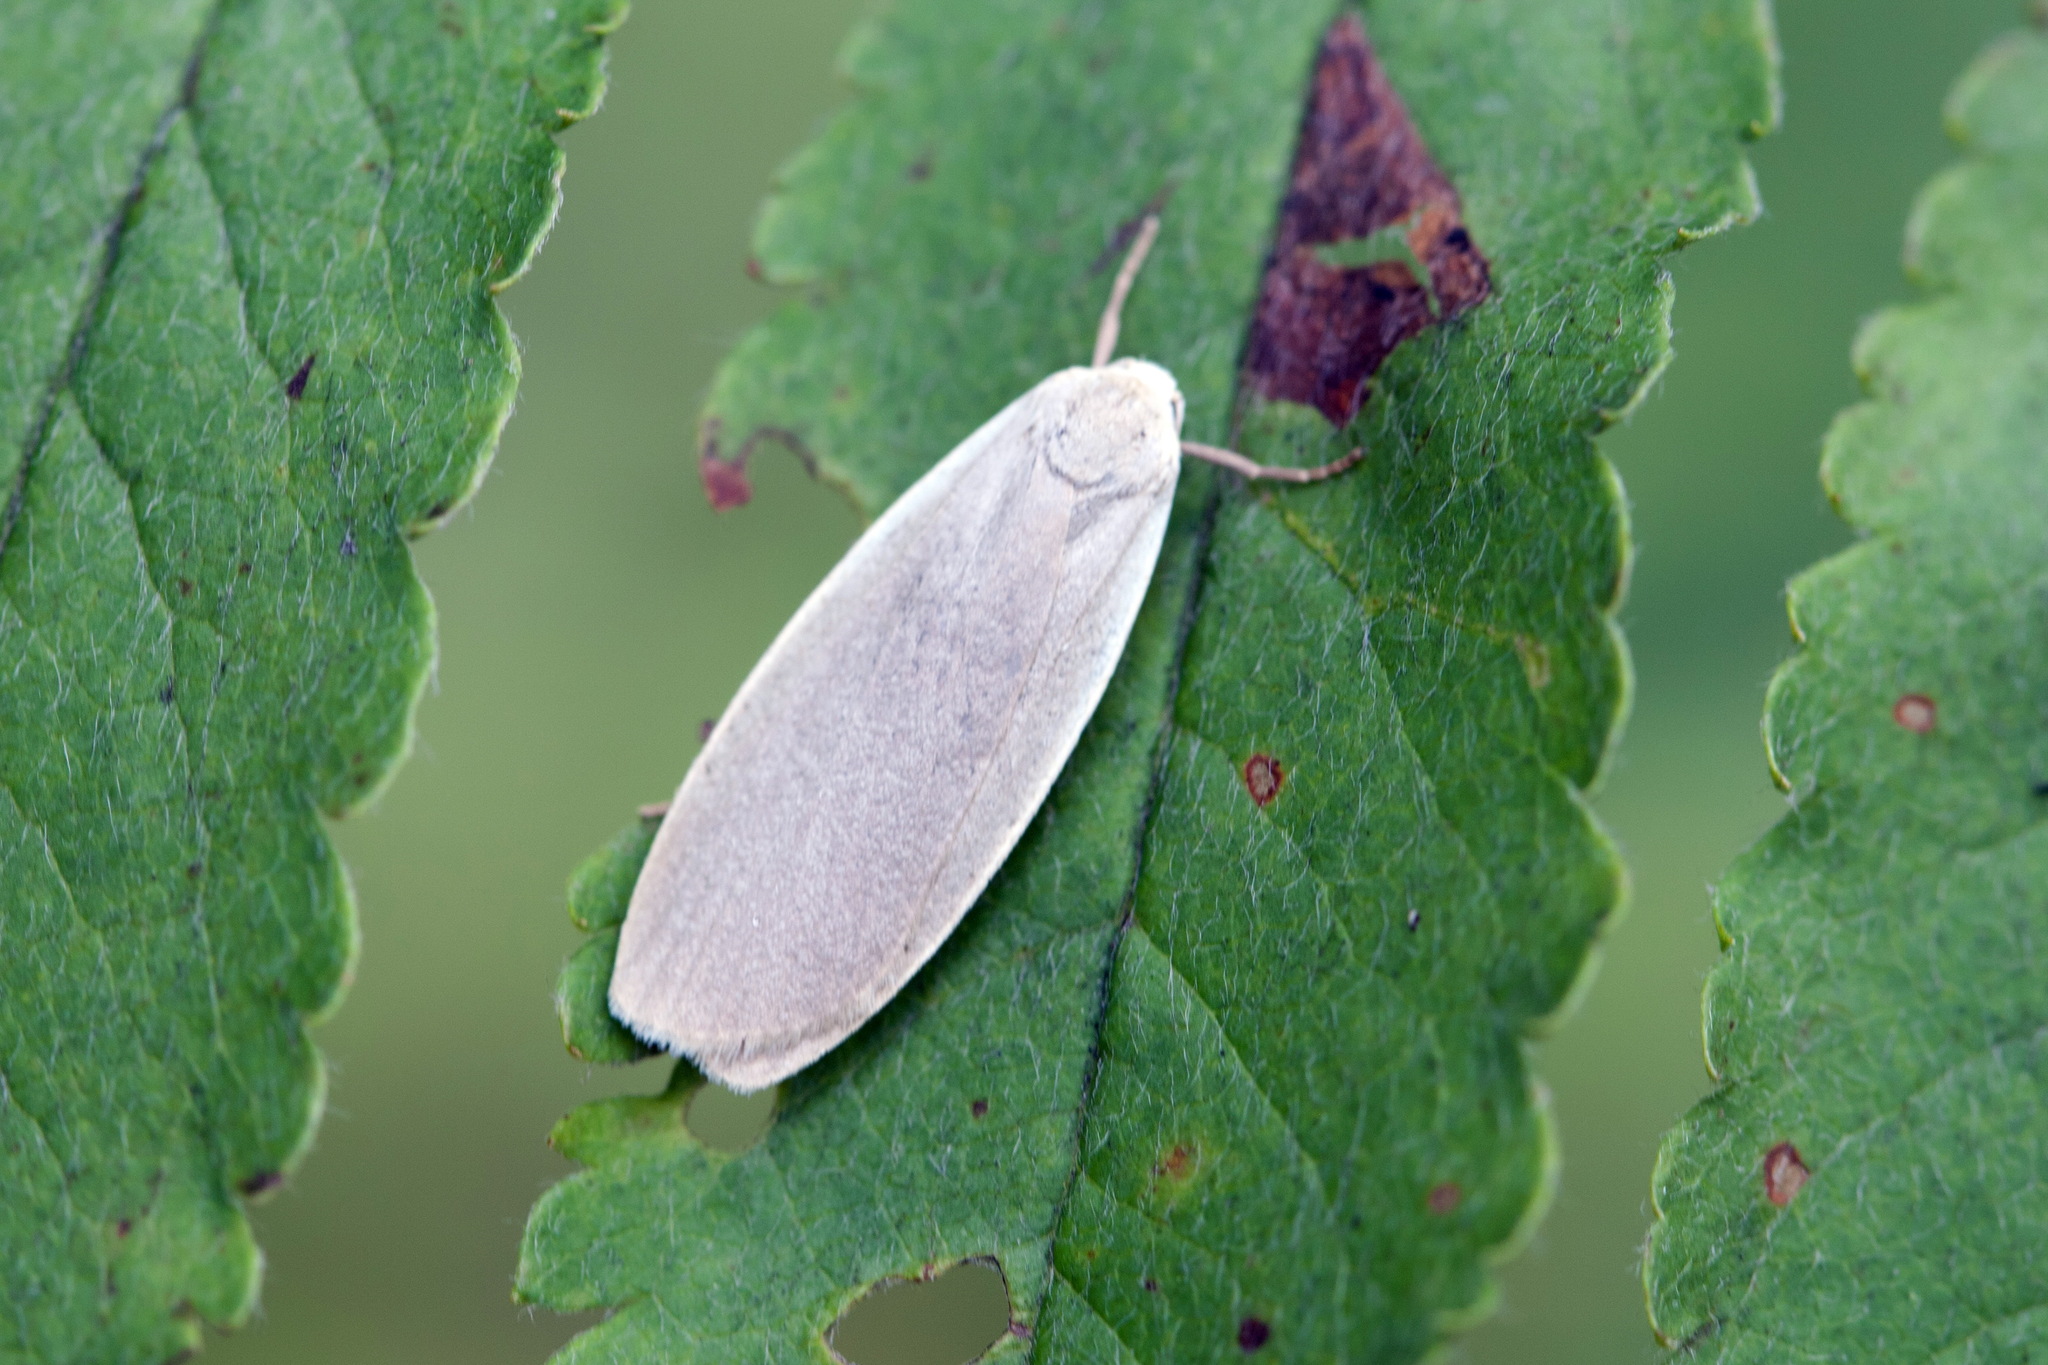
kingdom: Animalia
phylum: Arthropoda
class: Insecta
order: Lepidoptera
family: Erebidae
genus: Collita
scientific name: Collita griseola
